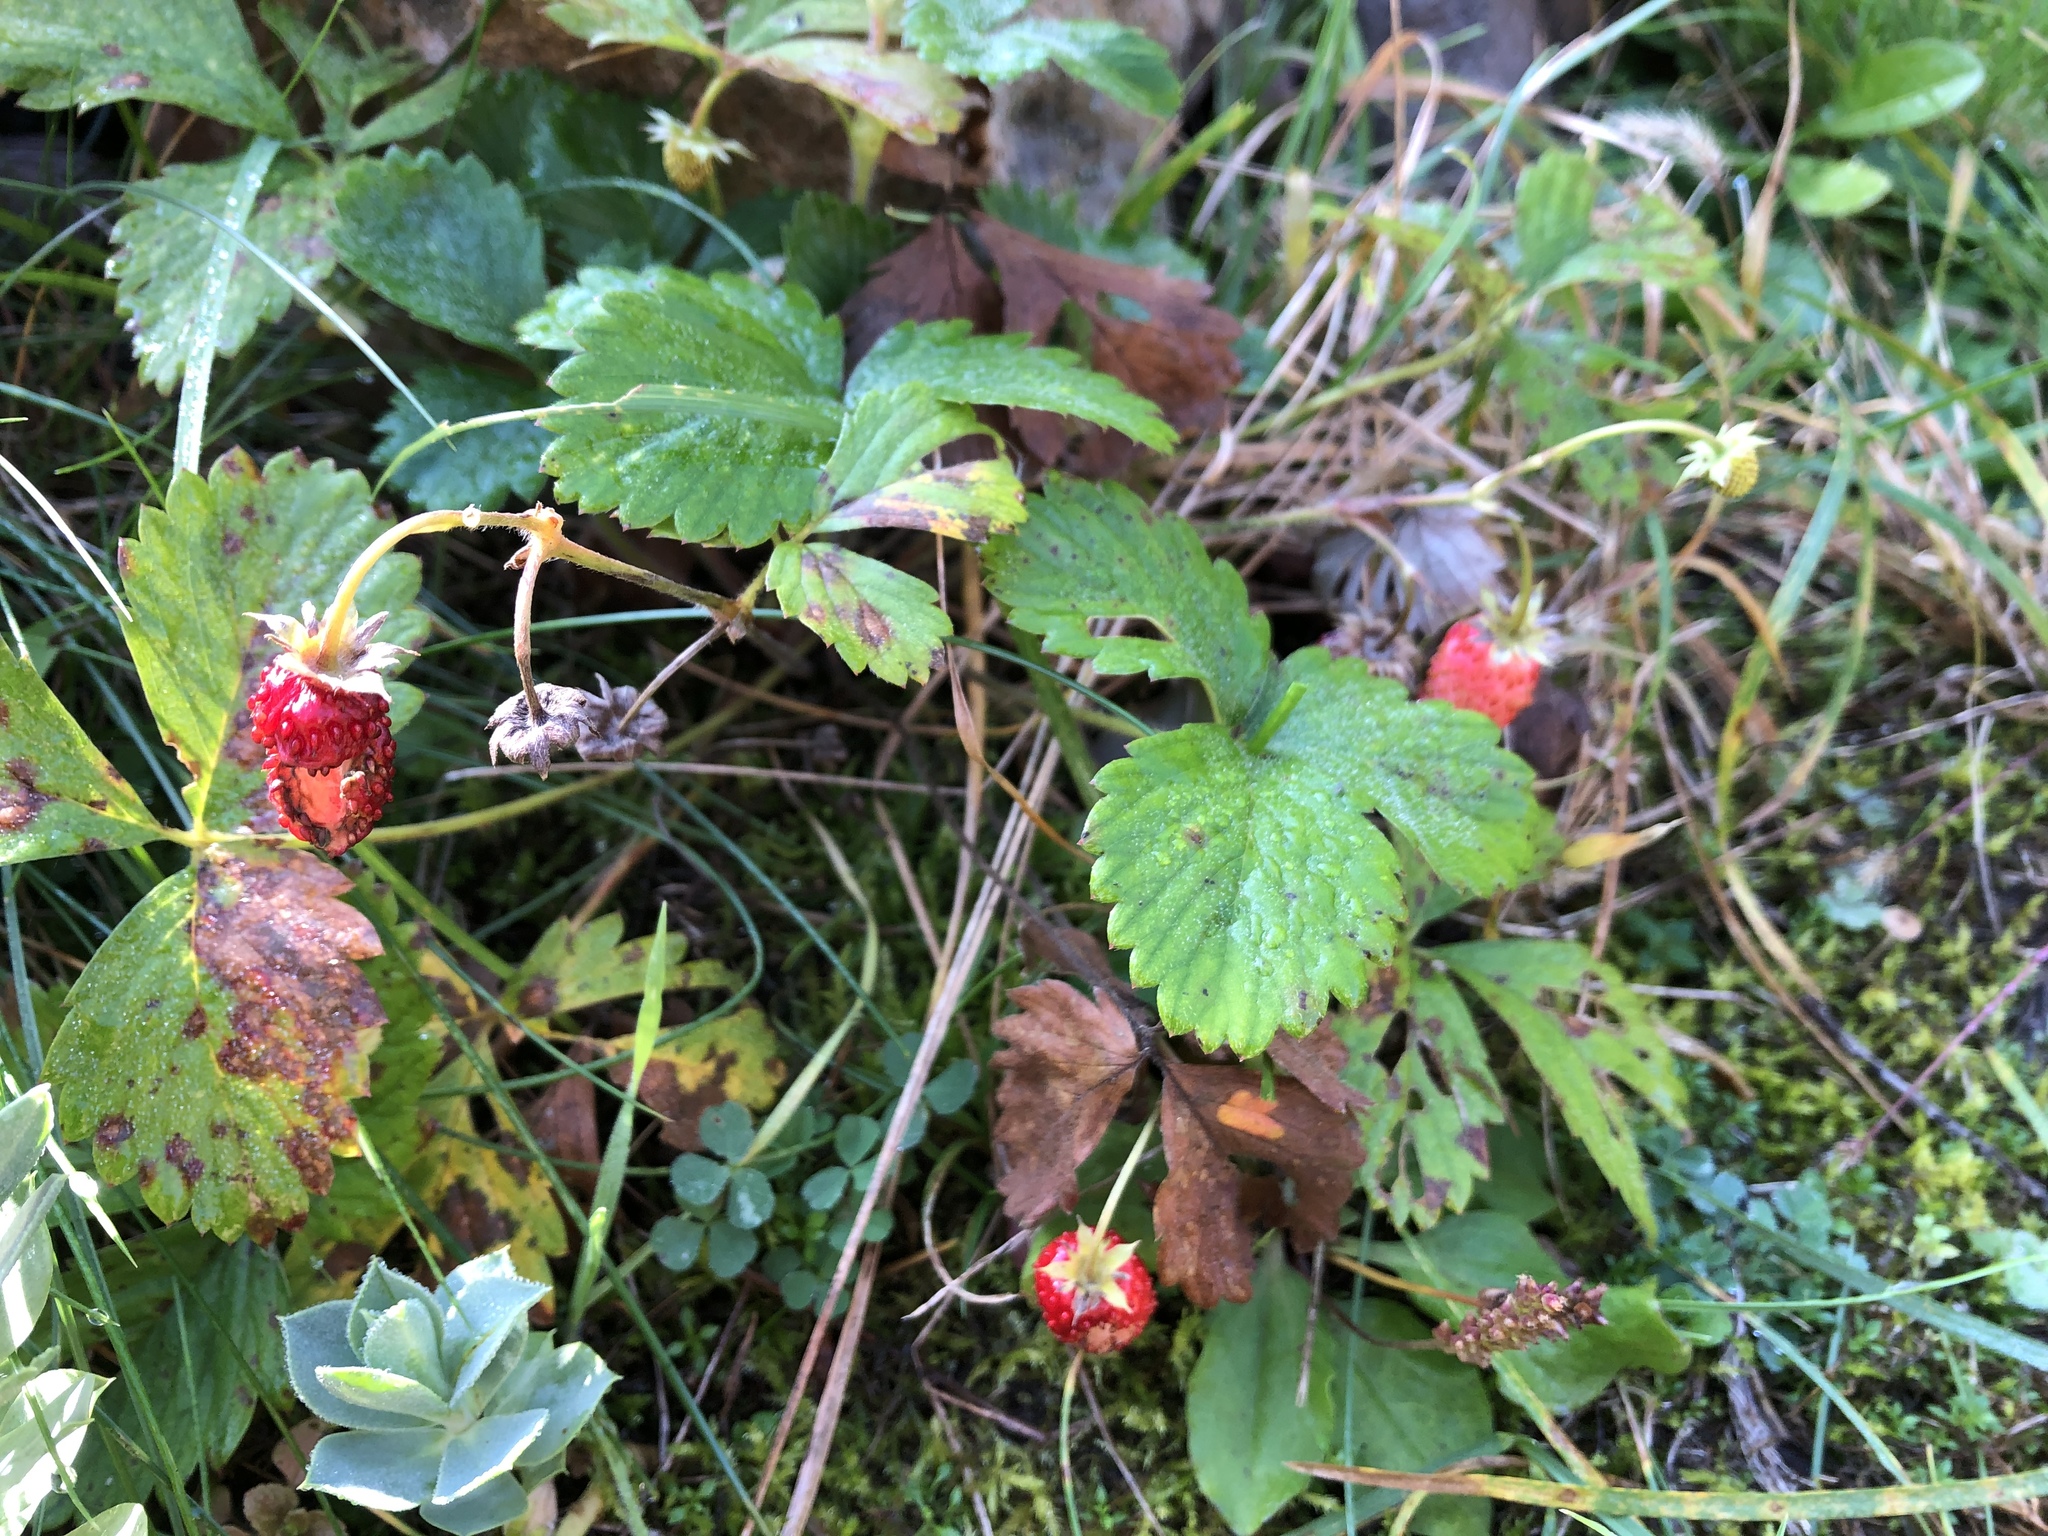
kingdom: Plantae
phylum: Tracheophyta
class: Magnoliopsida
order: Rosales
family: Rosaceae
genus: Fragaria
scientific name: Fragaria vesca
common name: Wild strawberry
